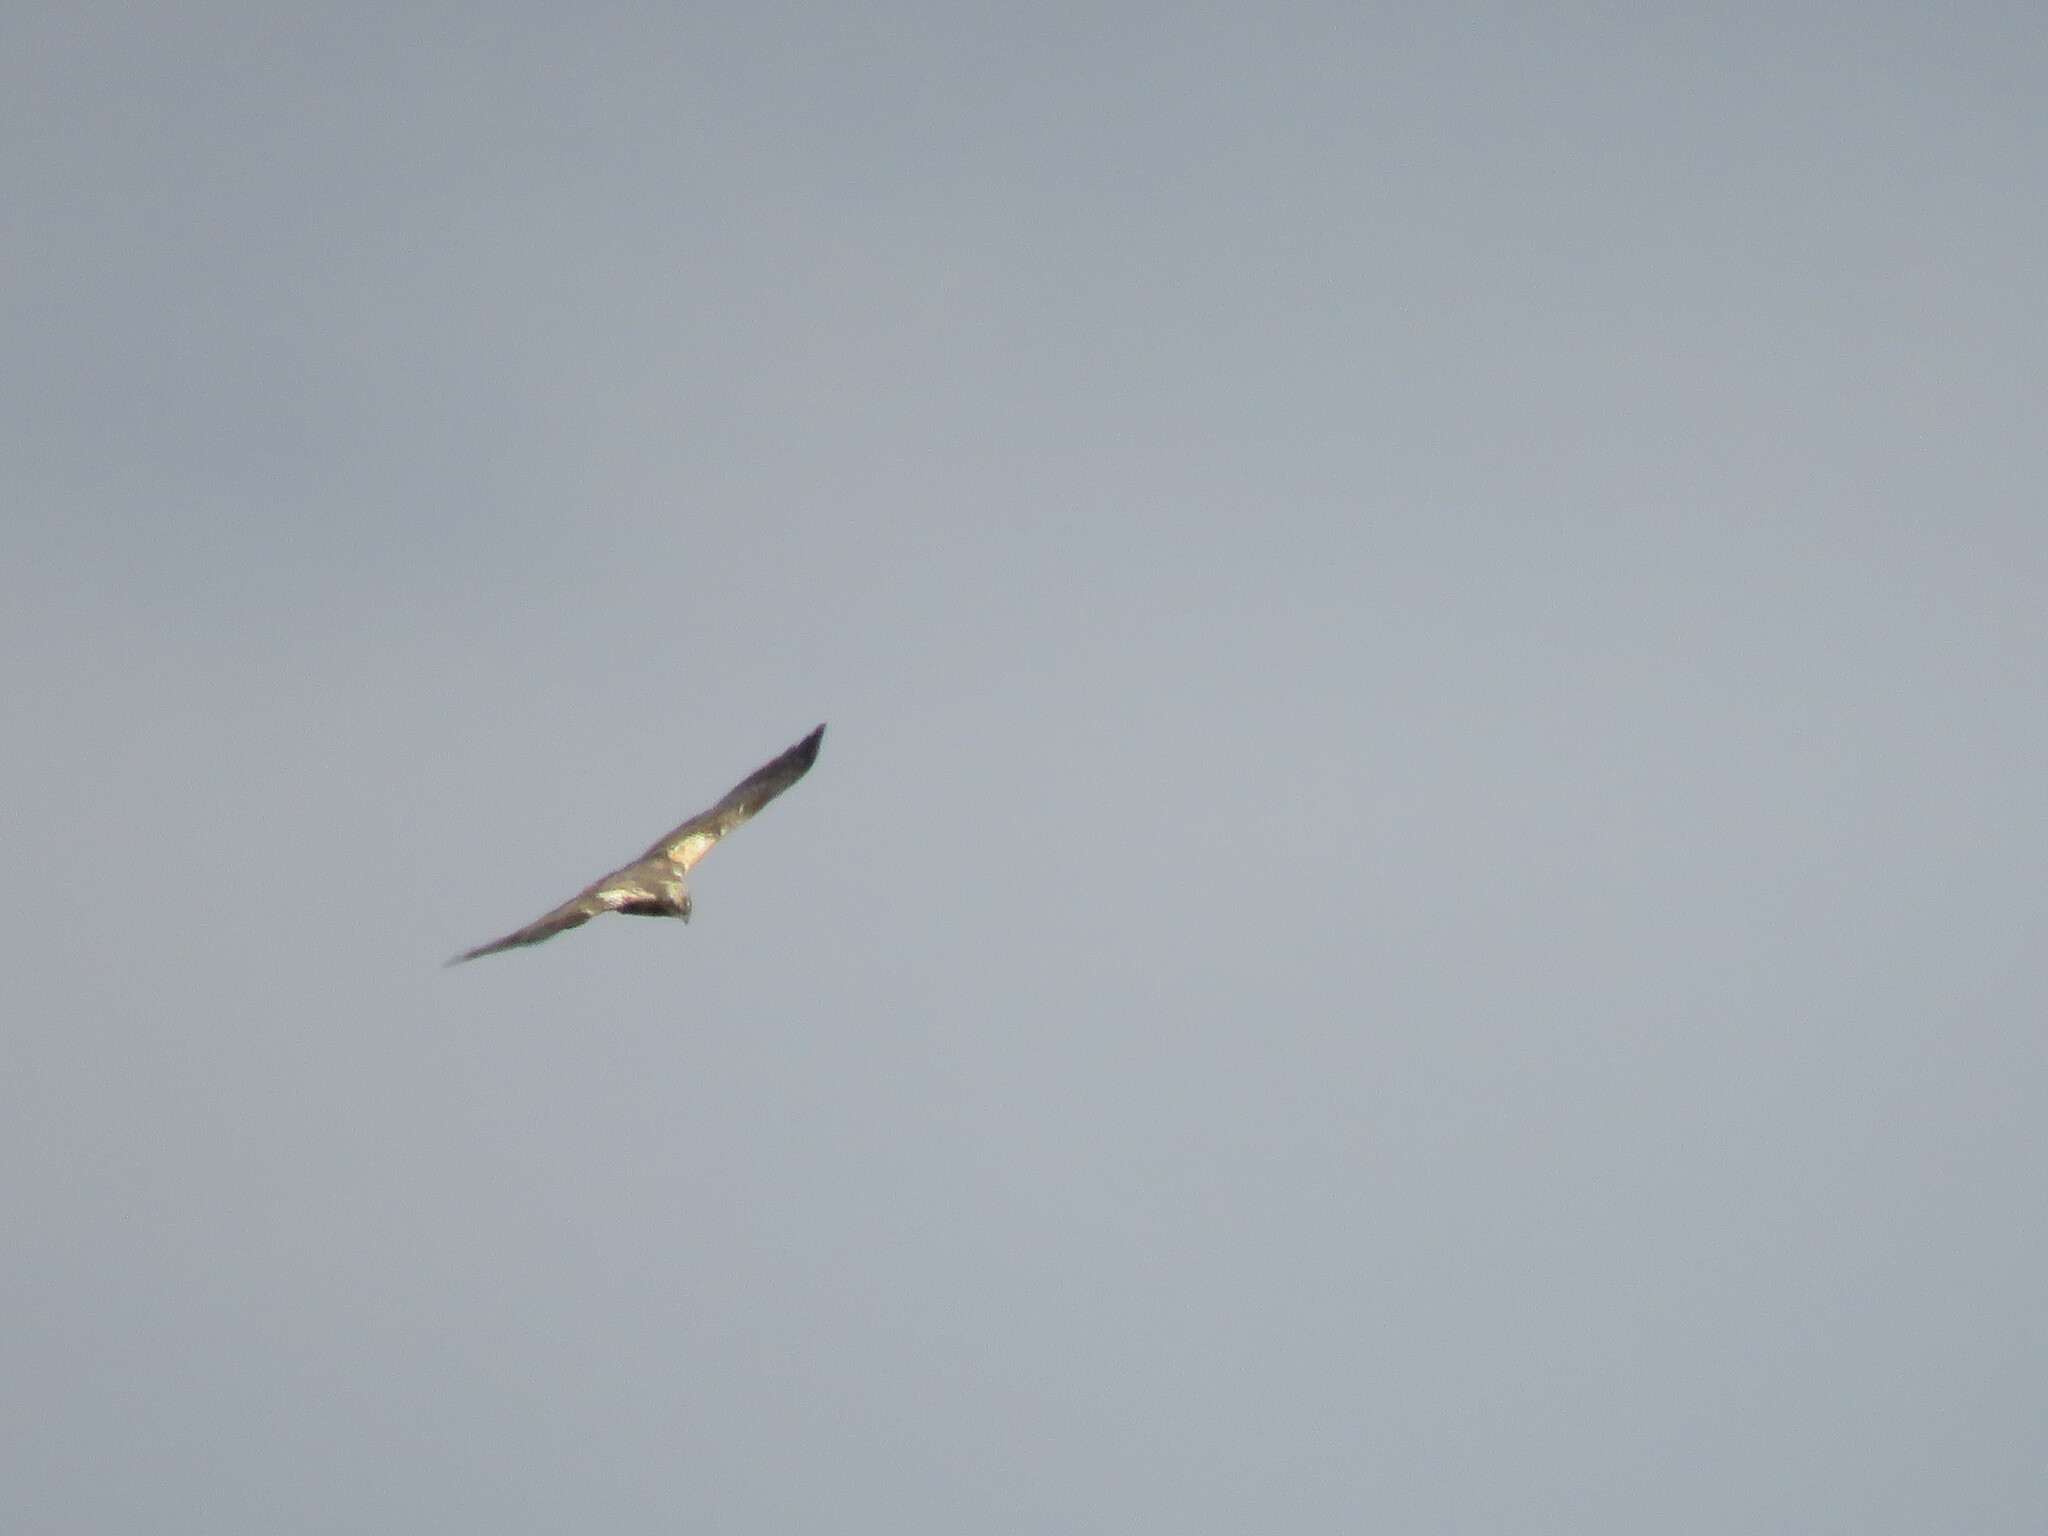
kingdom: Animalia
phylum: Chordata
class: Aves
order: Accipitriformes
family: Accipitridae
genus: Circus
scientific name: Circus aeruginosus
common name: Western marsh harrier
